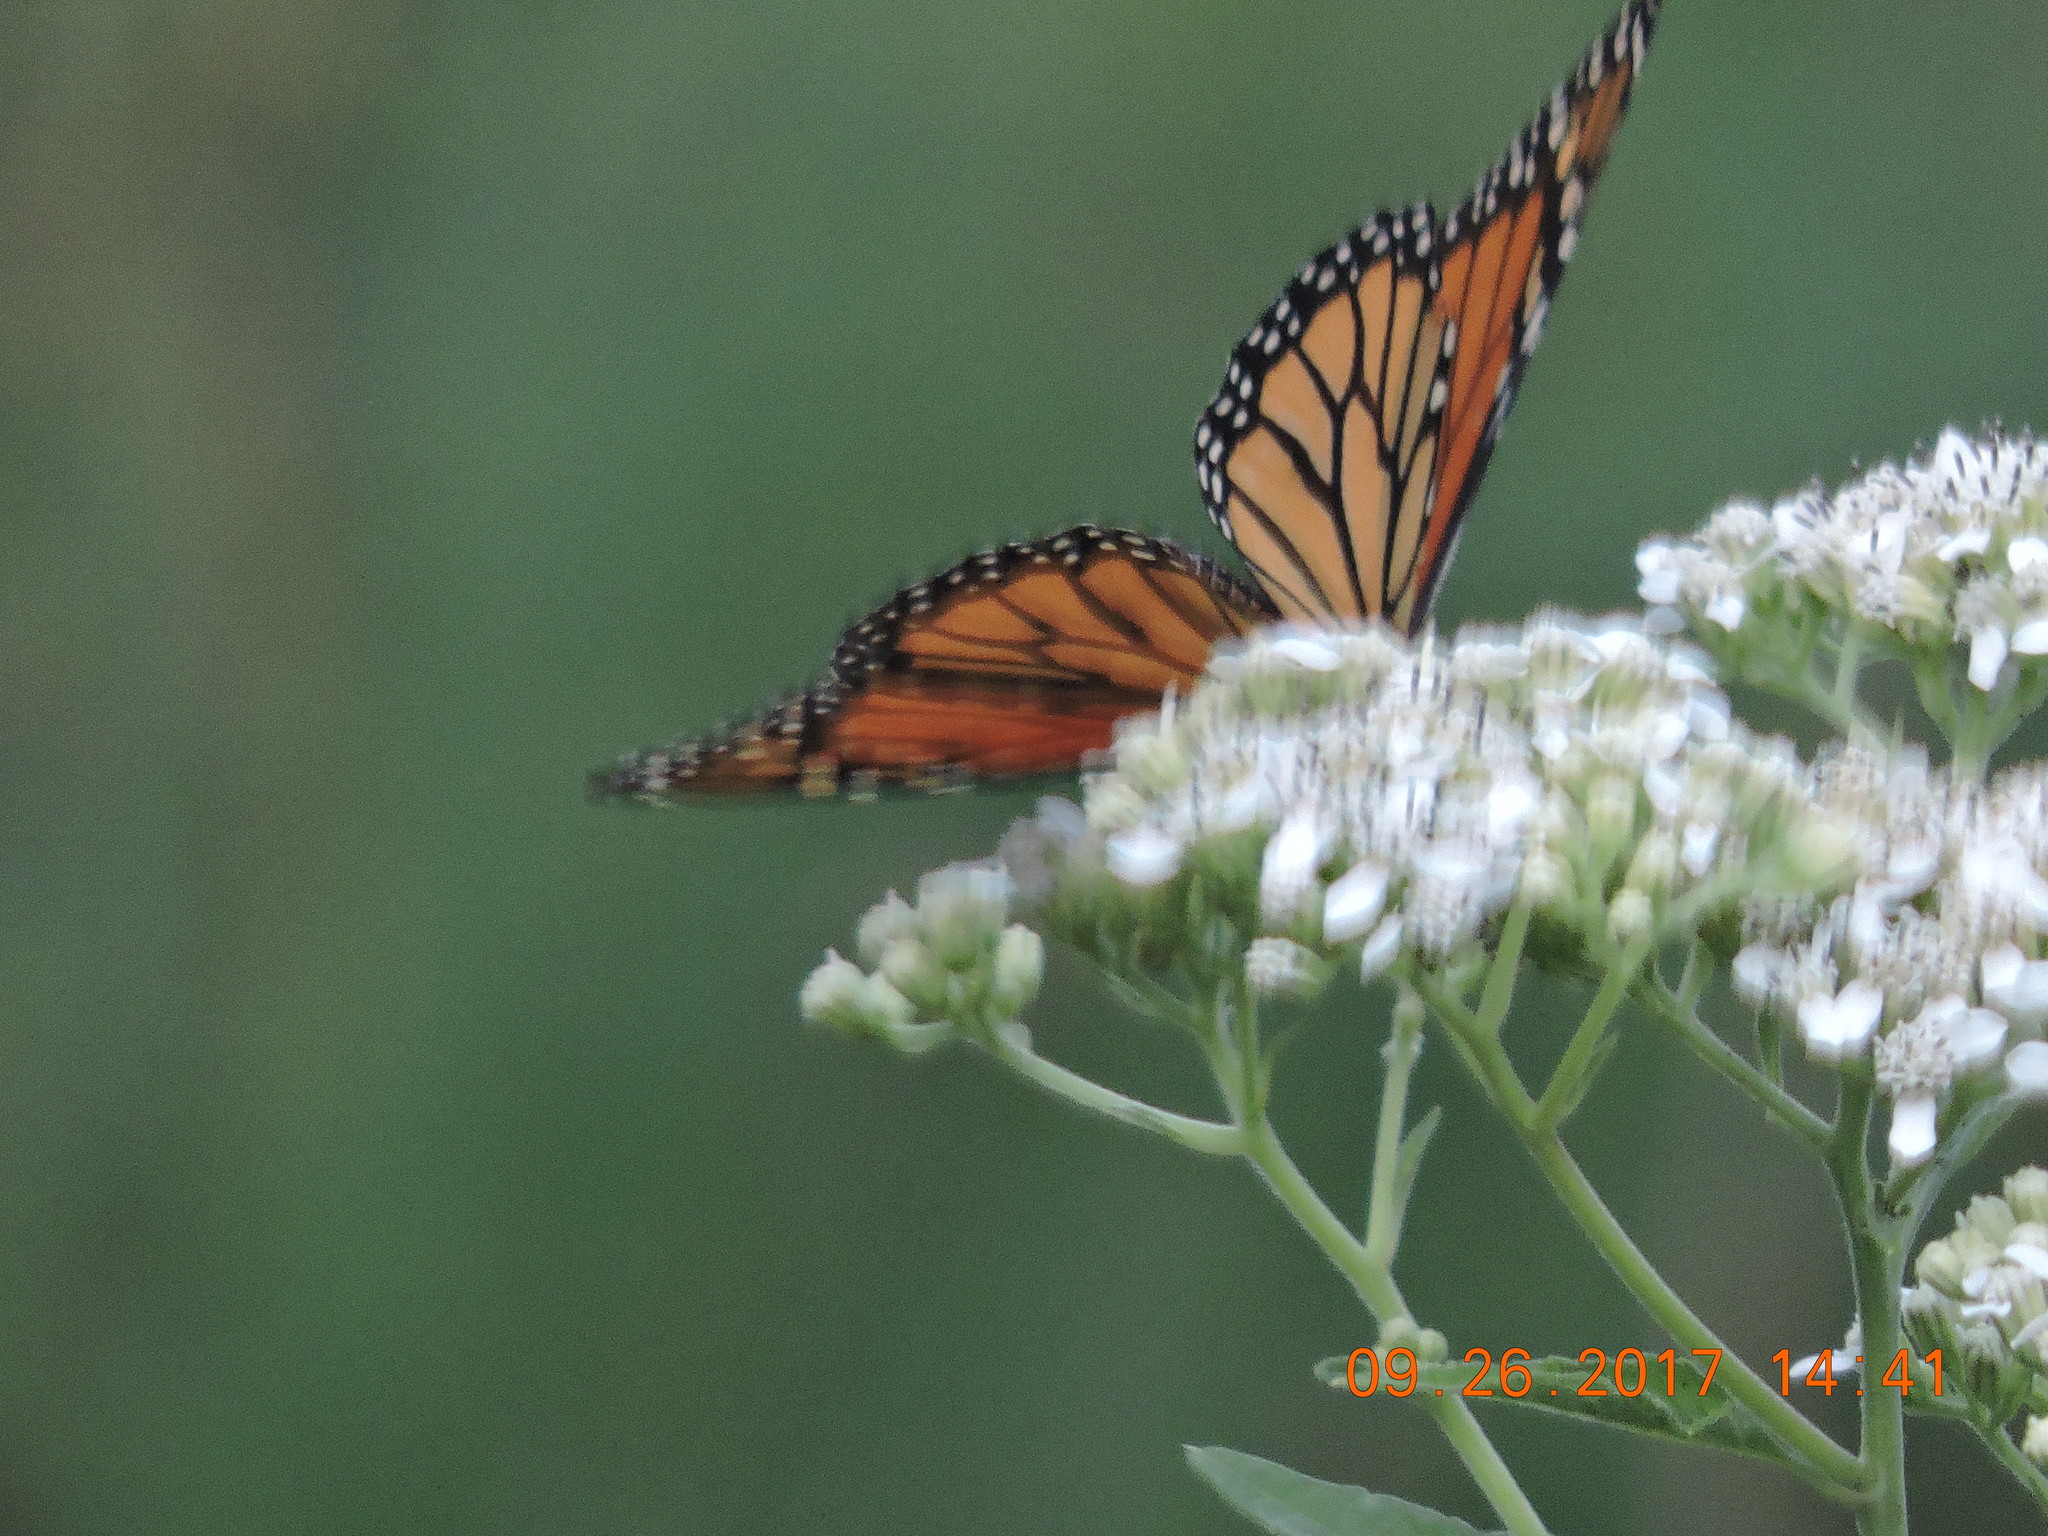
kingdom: Animalia
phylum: Arthropoda
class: Insecta
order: Lepidoptera
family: Nymphalidae
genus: Danaus
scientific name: Danaus plexippus
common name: Monarch
